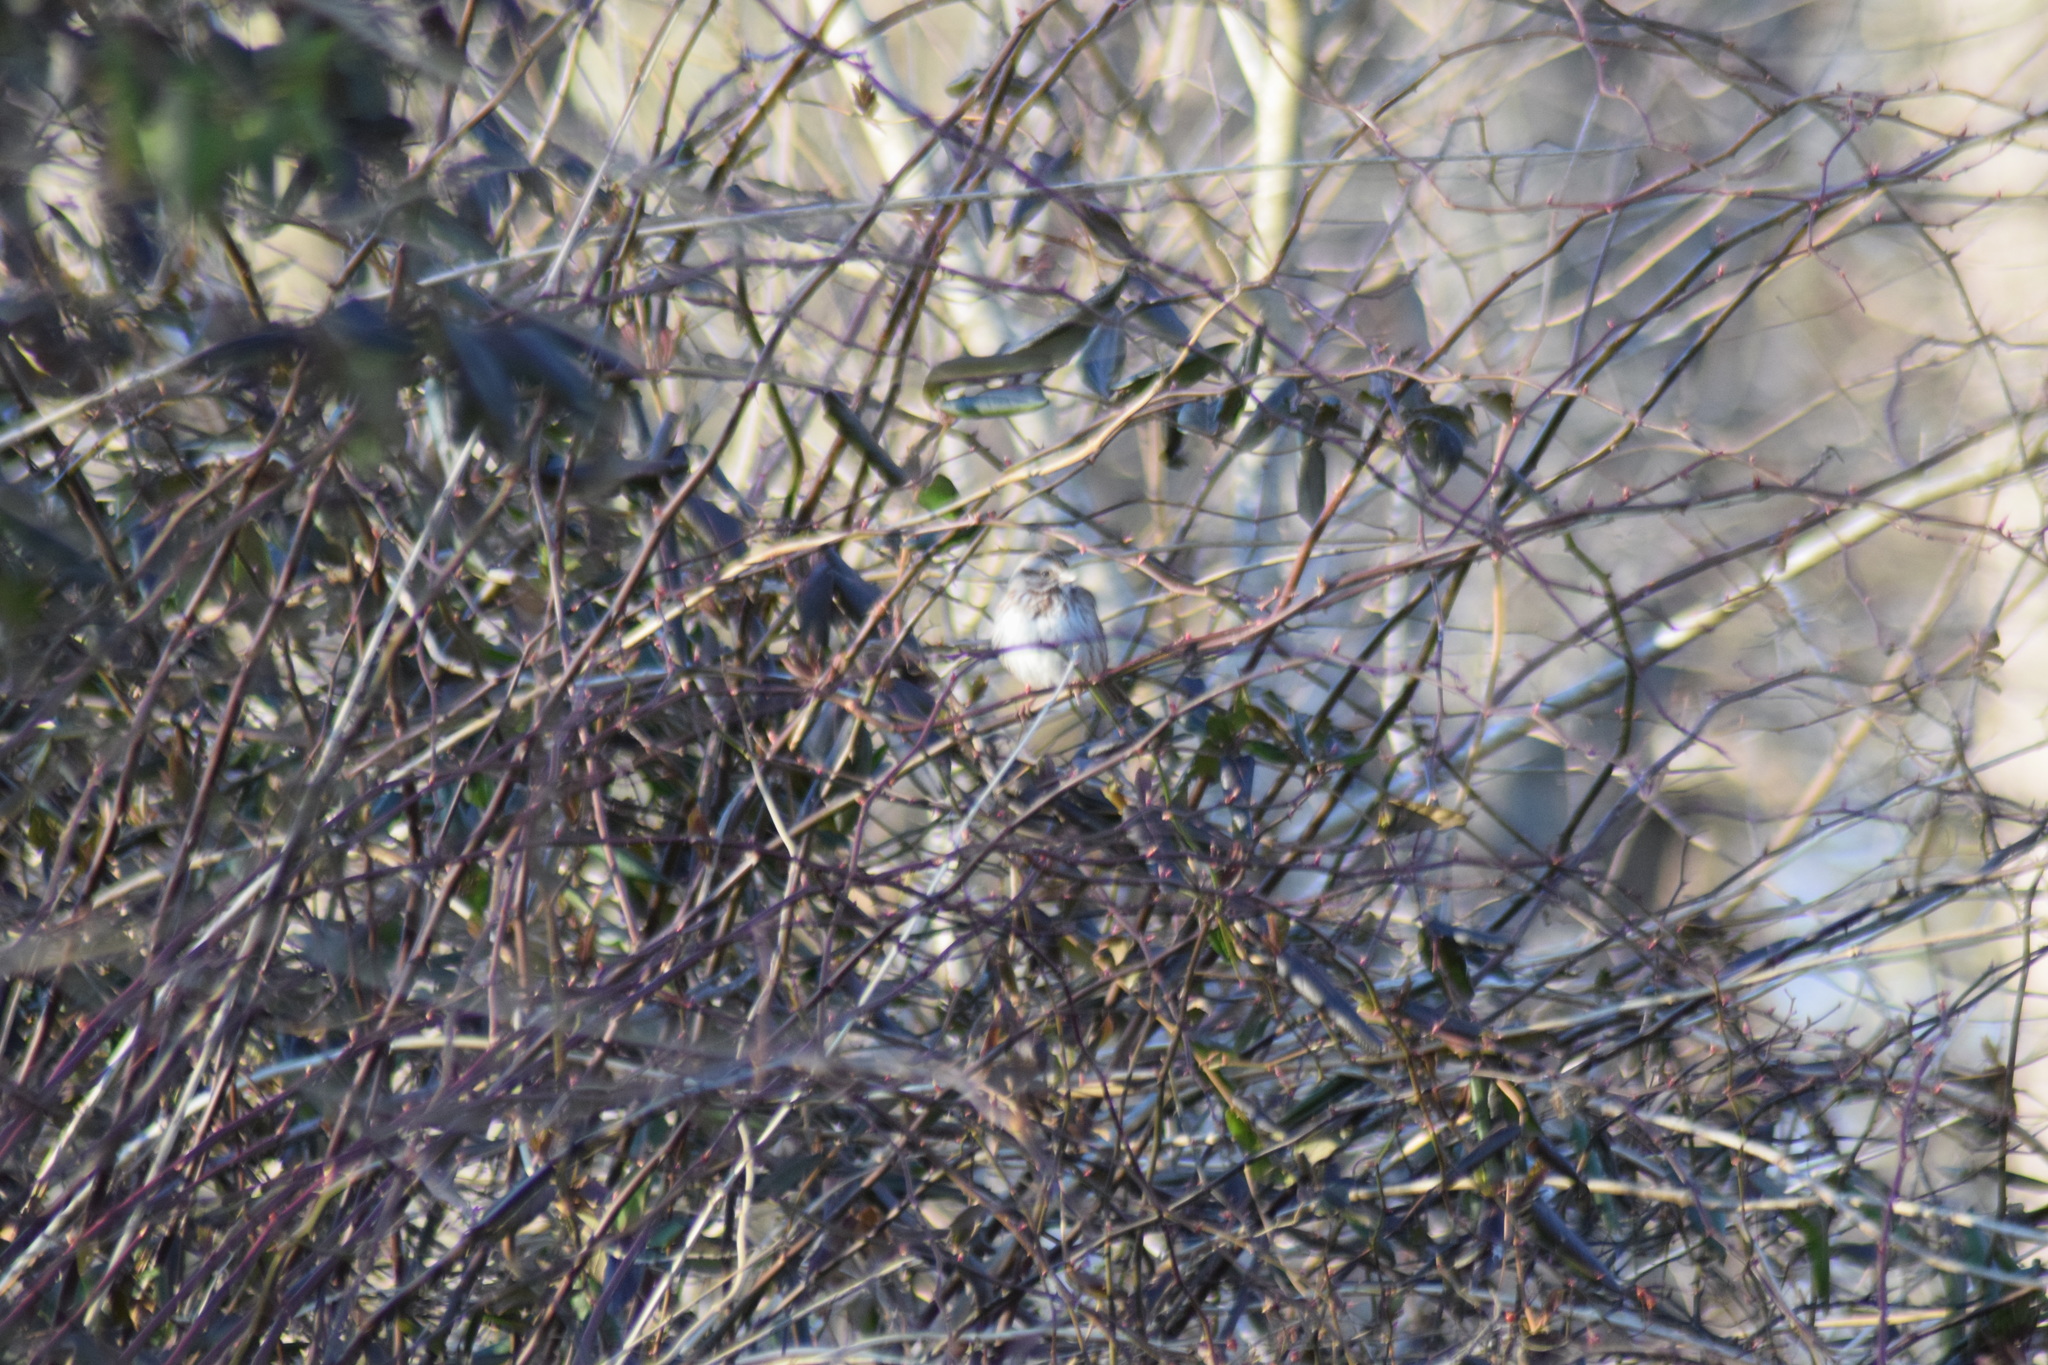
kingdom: Animalia
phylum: Chordata
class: Aves
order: Passeriformes
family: Passerellidae
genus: Melospiza
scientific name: Melospiza melodia
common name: Song sparrow
